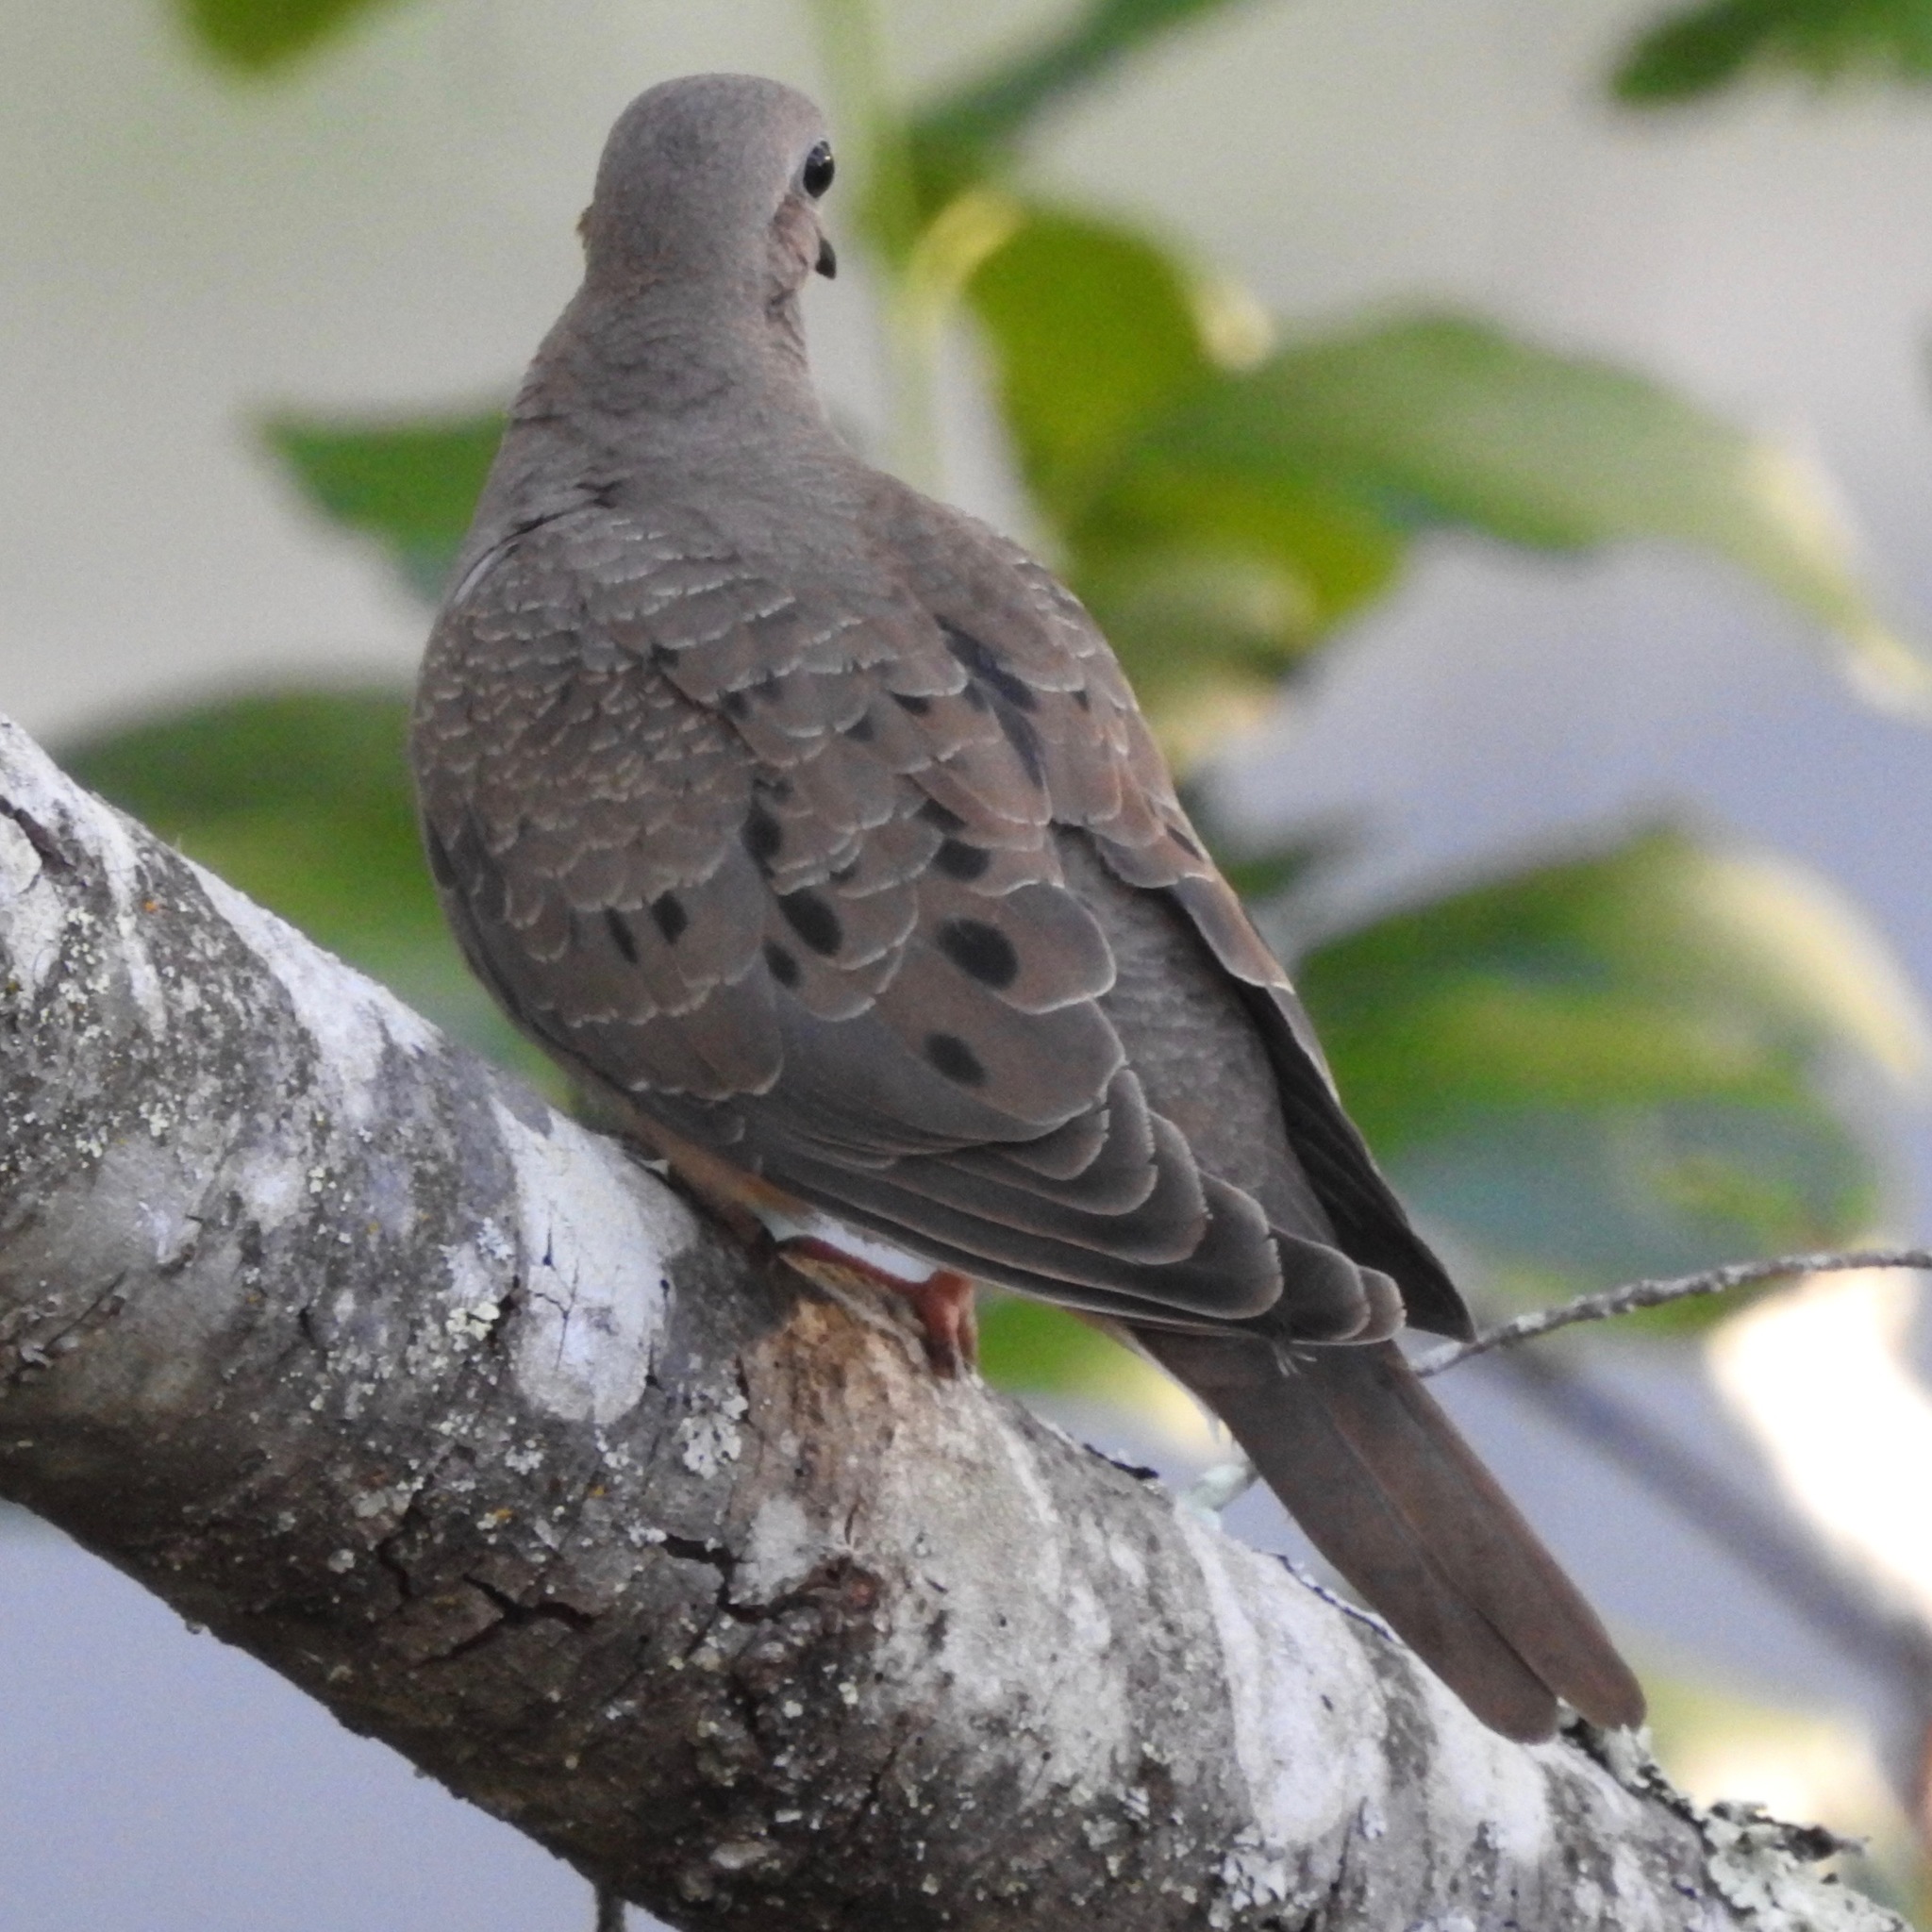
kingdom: Animalia
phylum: Chordata
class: Aves
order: Columbiformes
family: Columbidae
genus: Zenaida
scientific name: Zenaida macroura
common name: Mourning dove
